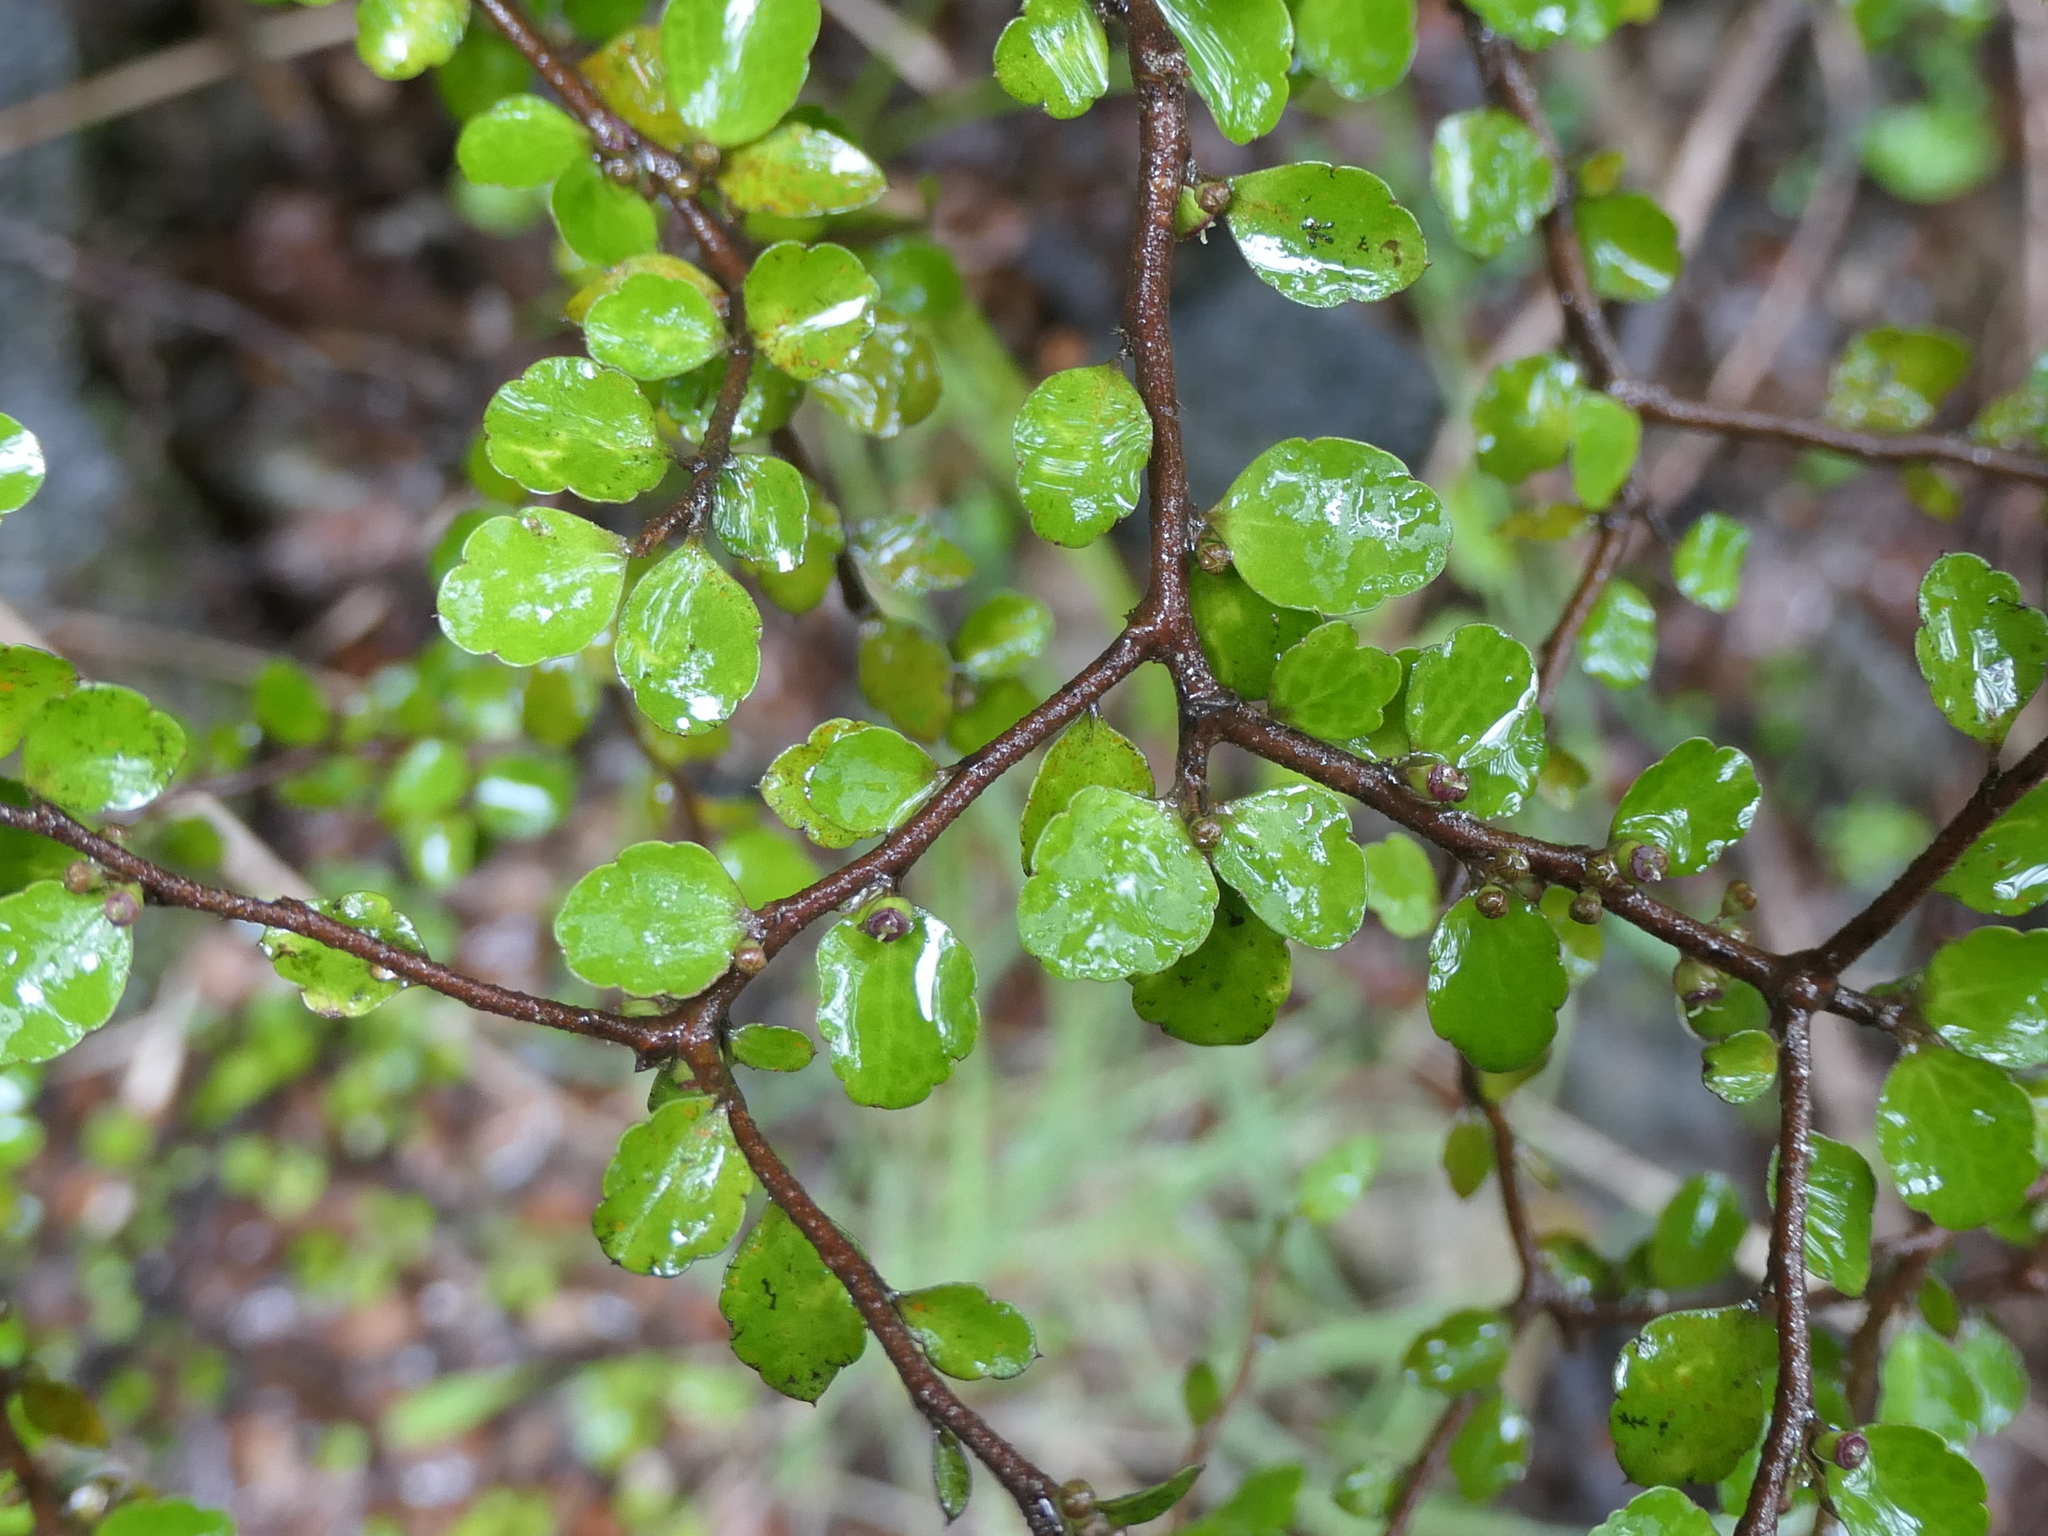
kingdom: Plantae
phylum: Tracheophyta
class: Magnoliopsida
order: Apiales
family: Araliaceae
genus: Raukaua
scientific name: Raukaua anomalus
